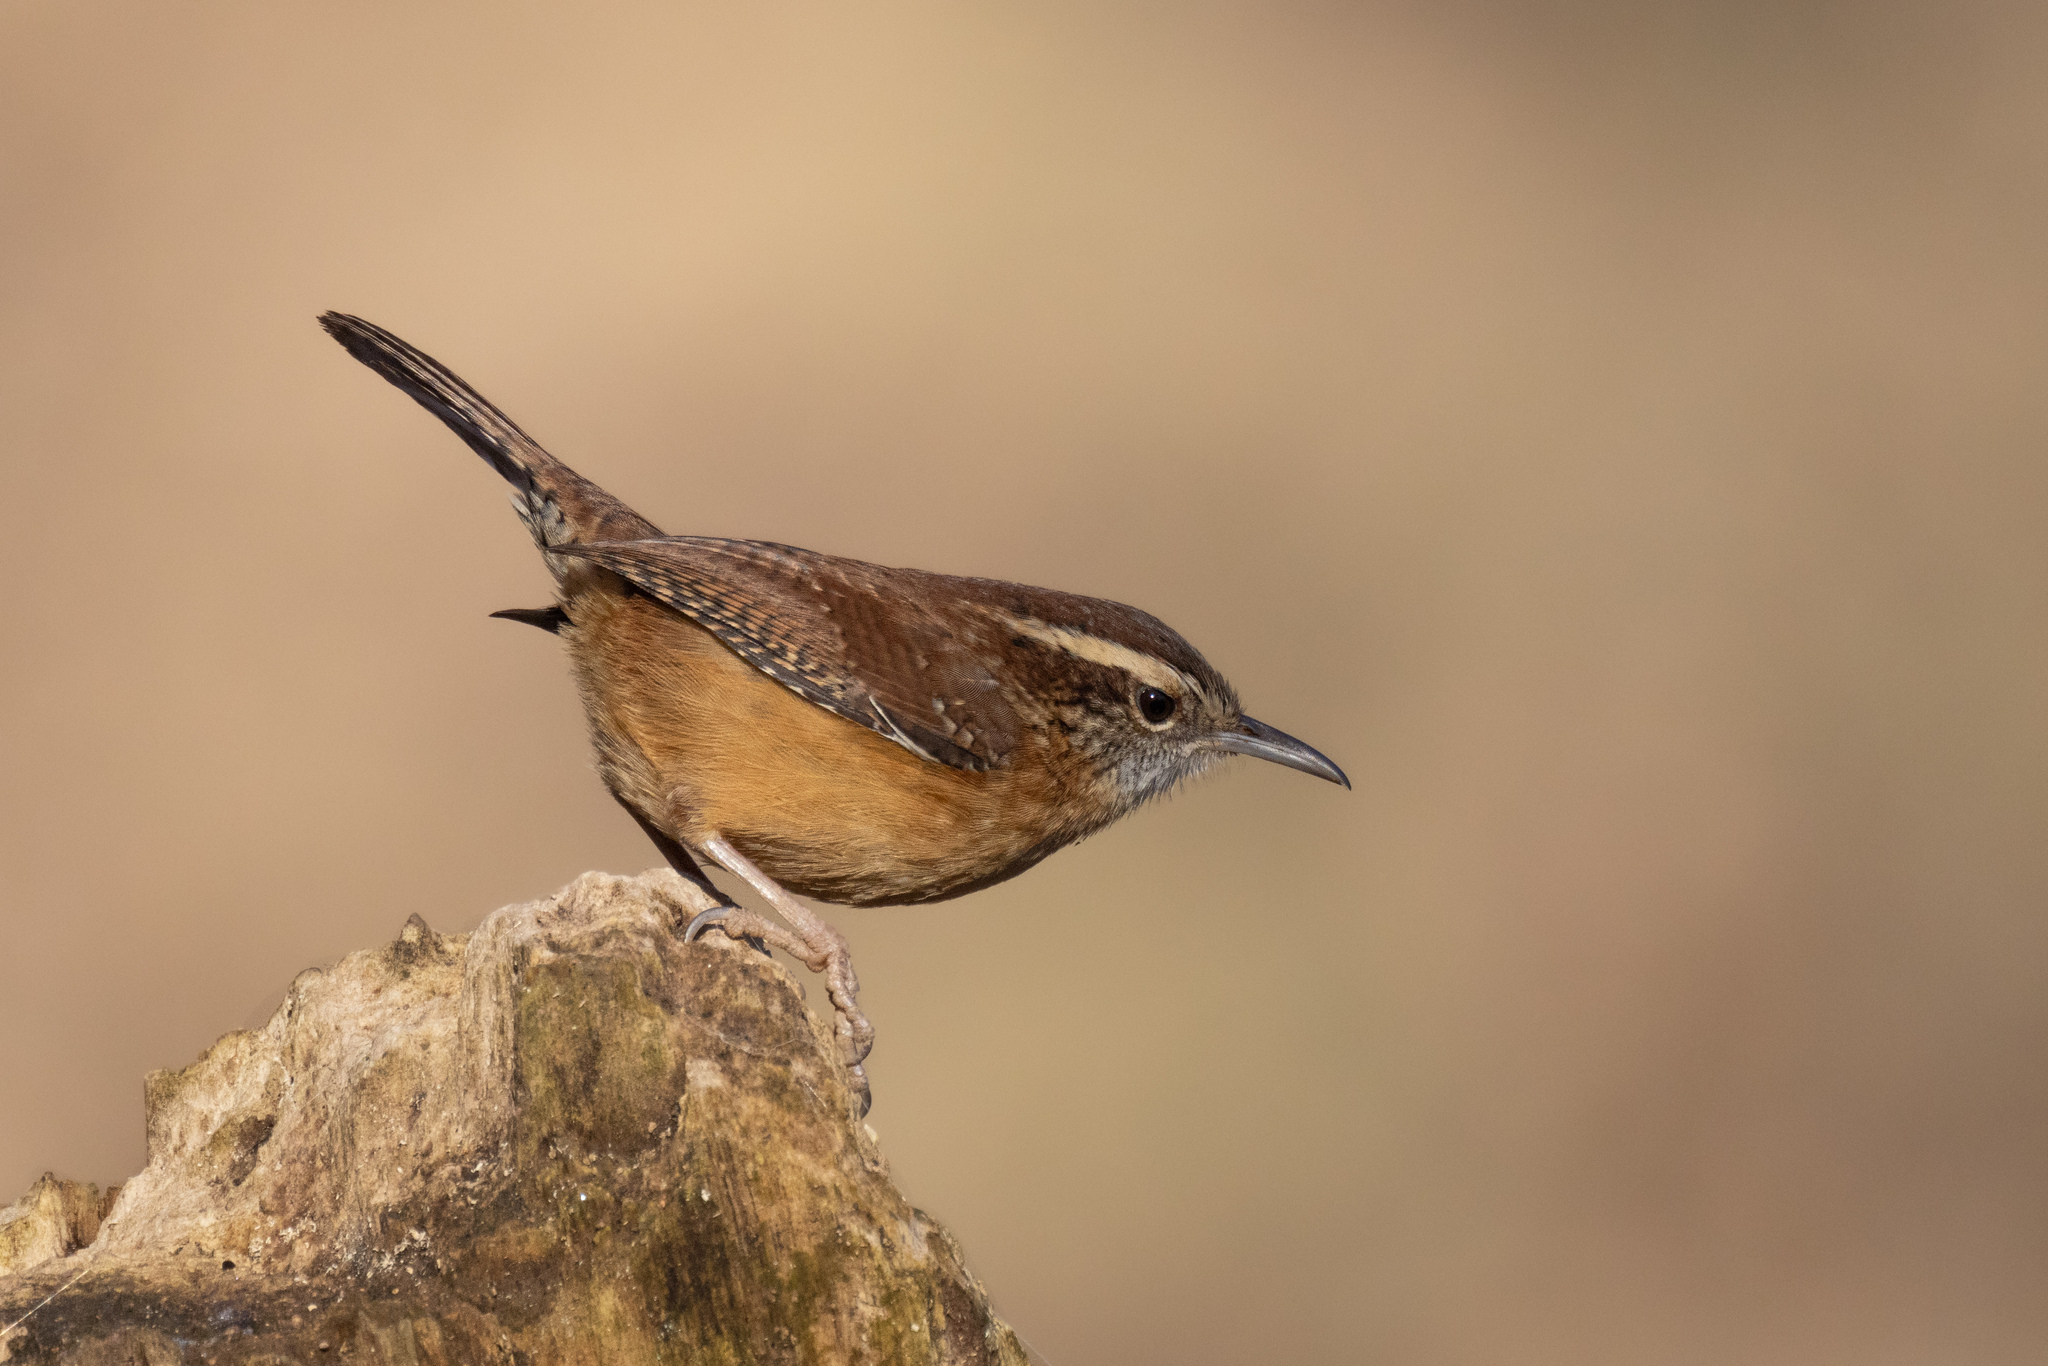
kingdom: Animalia
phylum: Chordata
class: Aves
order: Passeriformes
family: Troglodytidae
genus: Thryothorus
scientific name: Thryothorus ludovicianus
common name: Carolina wren
